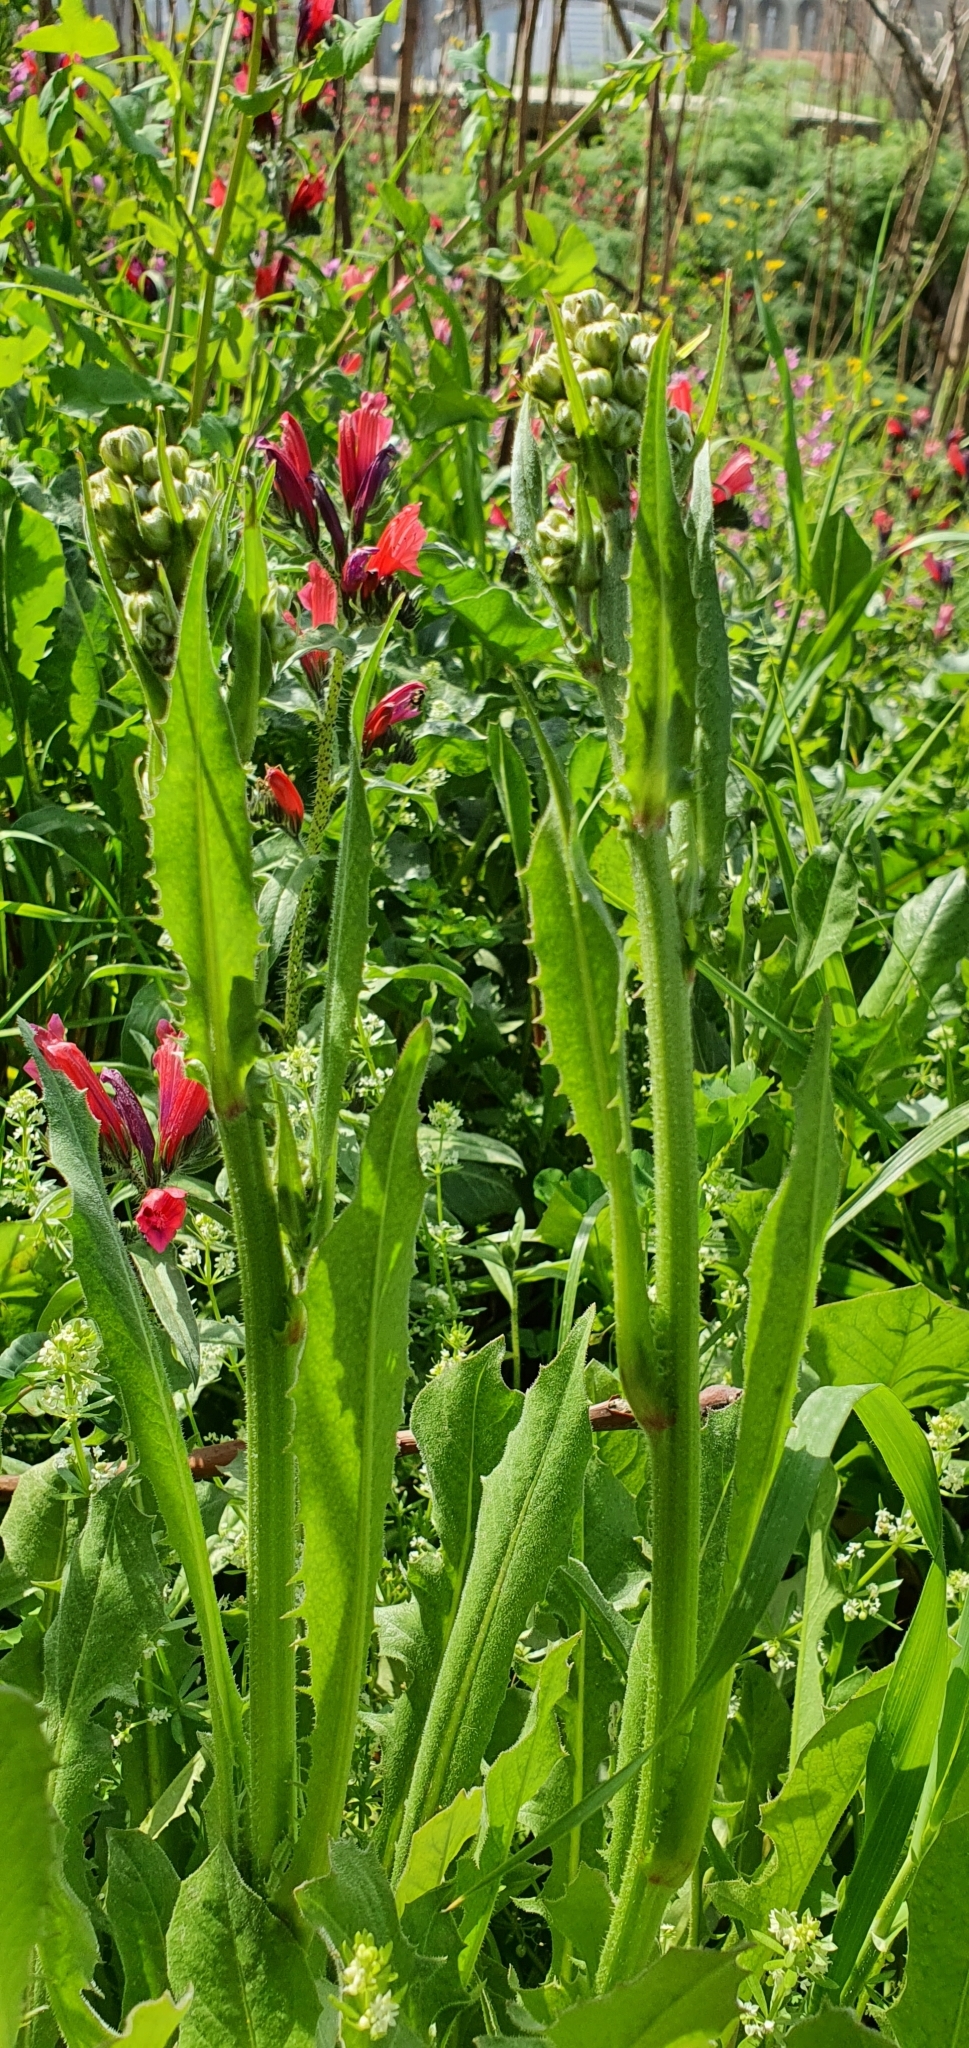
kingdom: Plantae
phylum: Tracheophyta
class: Magnoliopsida
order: Asterales
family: Asteraceae
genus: Crepis
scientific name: Crepis vesicaria
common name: Beaked hawksbeard
